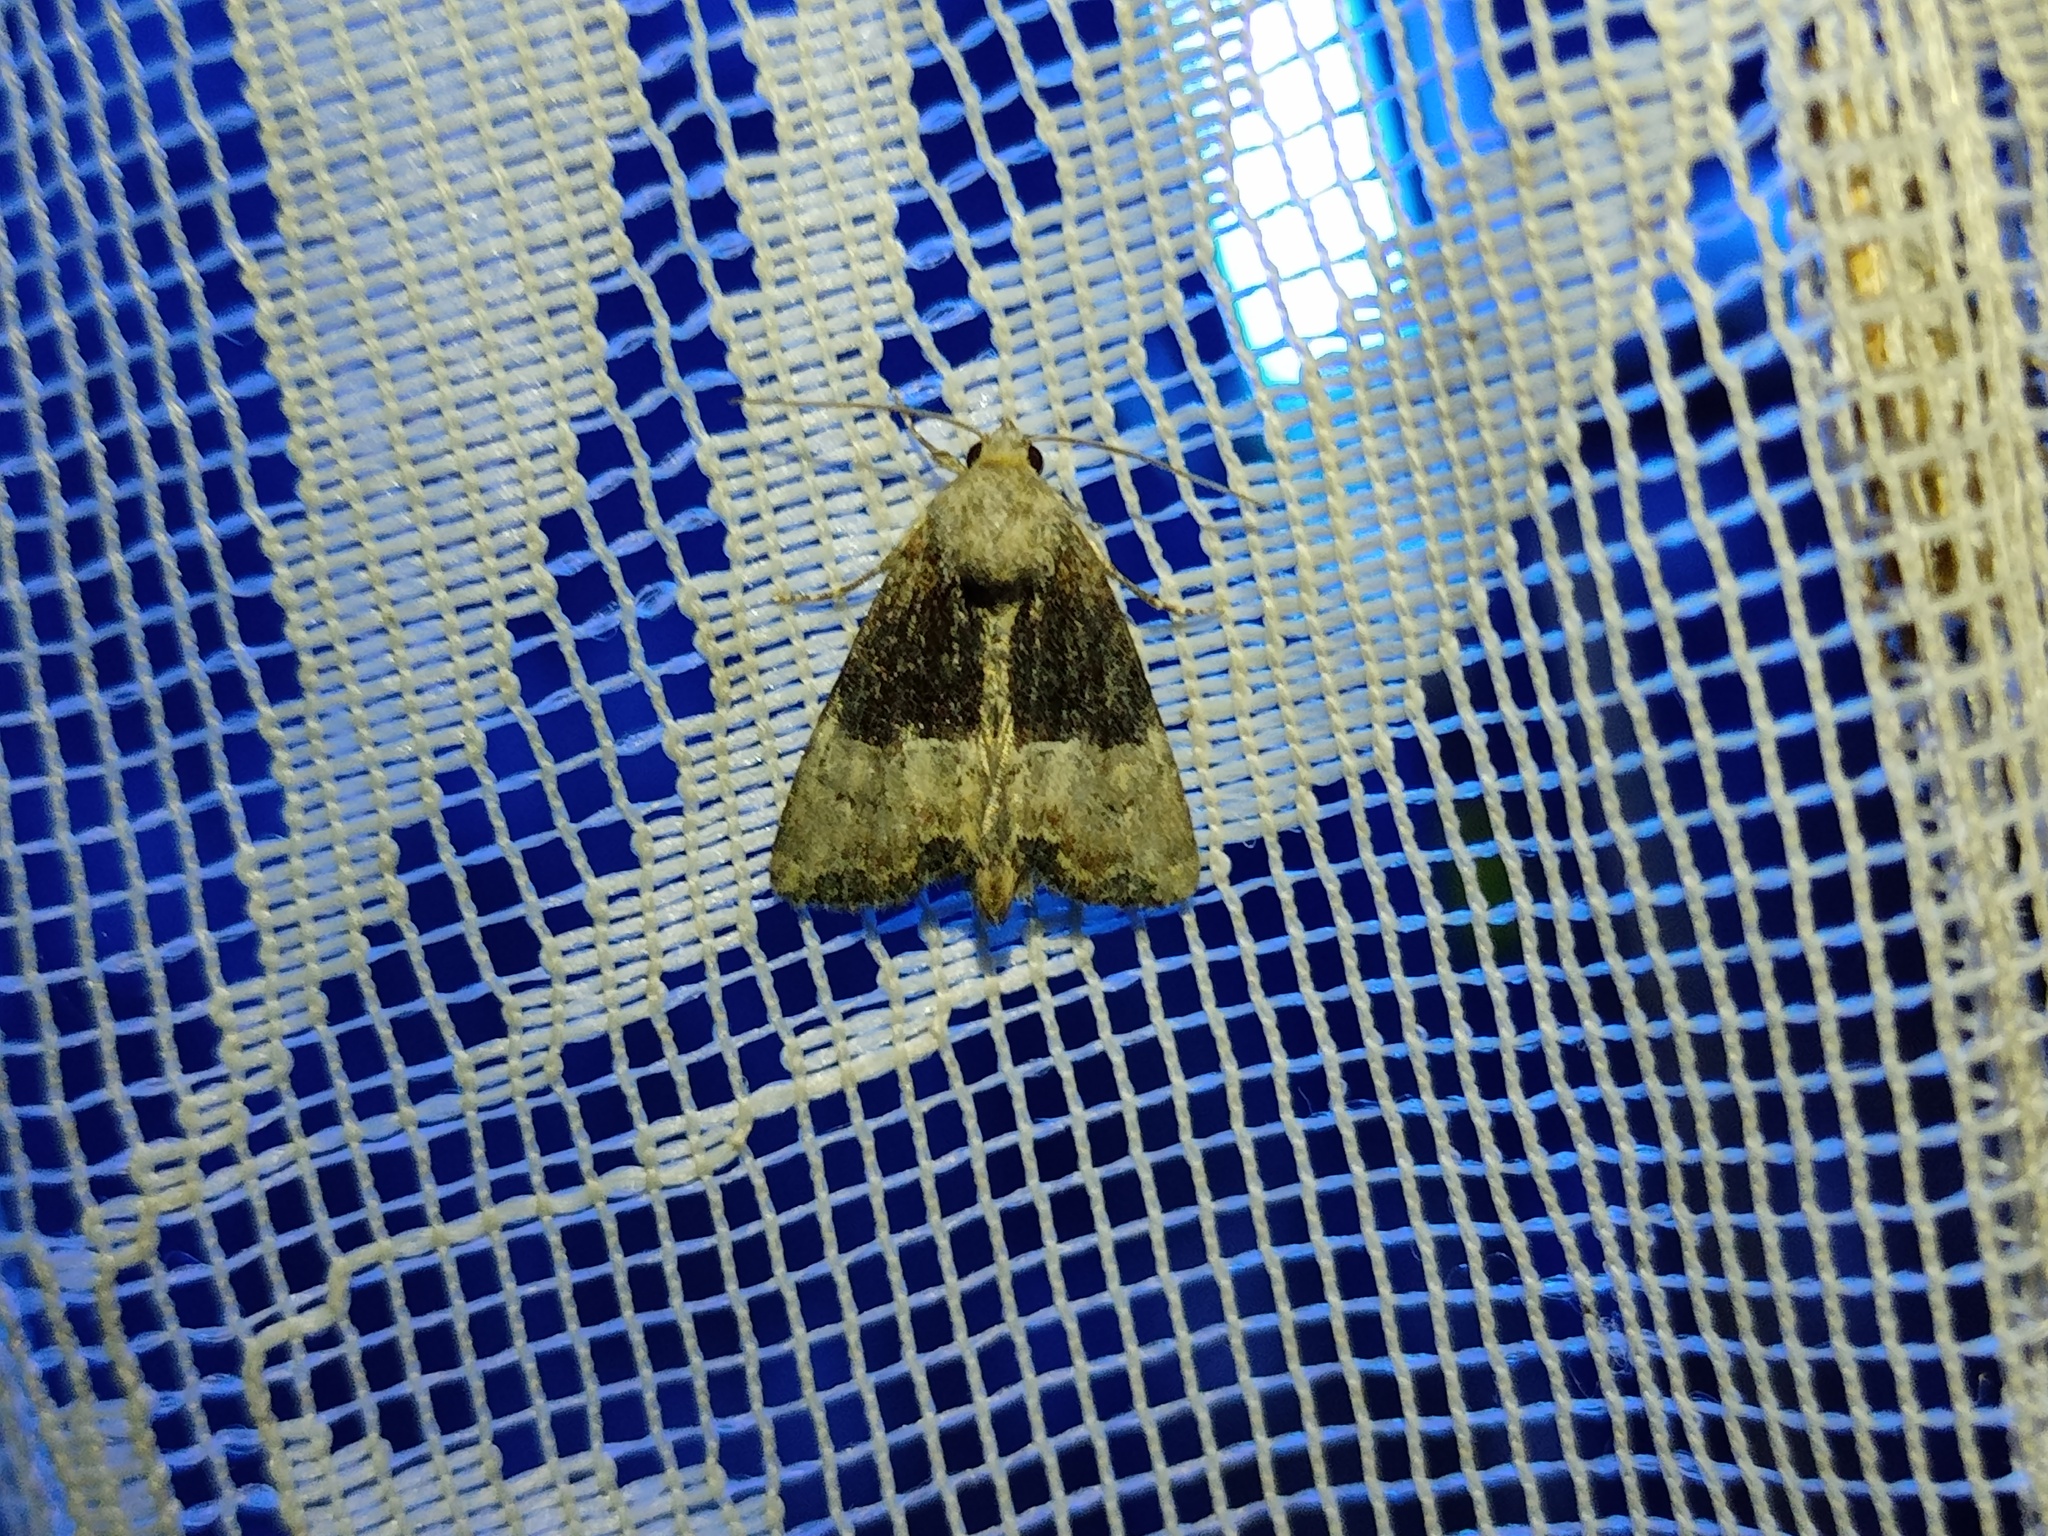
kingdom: Animalia
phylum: Arthropoda
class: Insecta
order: Lepidoptera
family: Noctuidae
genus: Mesoligia
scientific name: Mesoligia furuncula
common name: Cloaked minor
